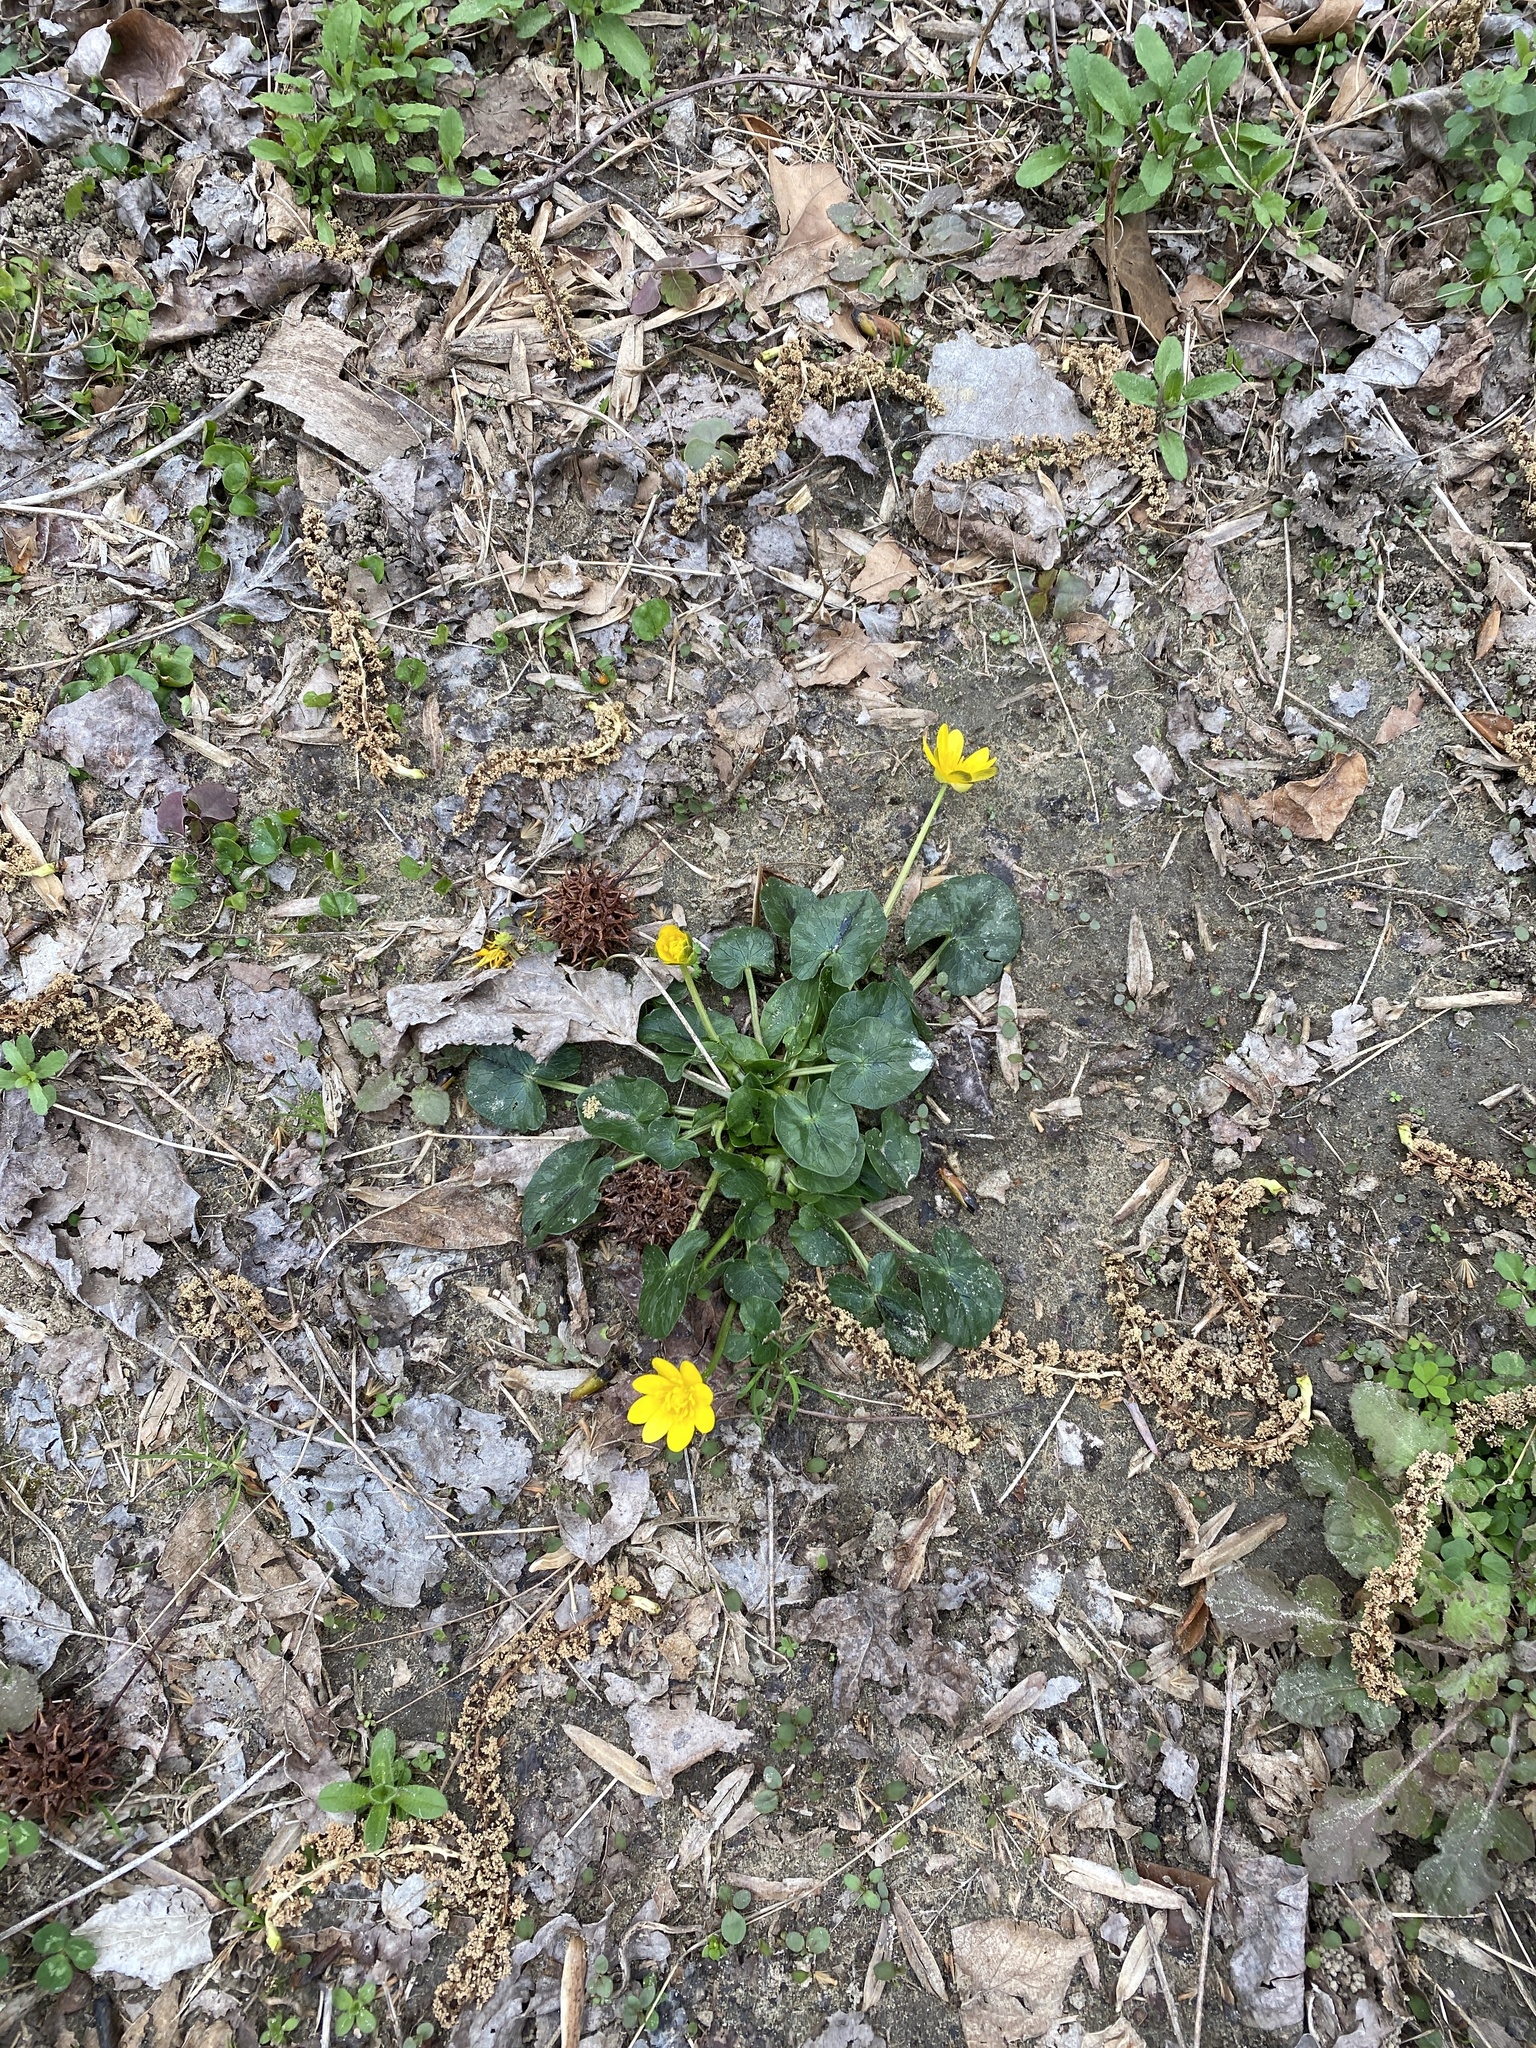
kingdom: Plantae
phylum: Tracheophyta
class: Magnoliopsida
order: Ranunculales
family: Ranunculaceae
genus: Ficaria
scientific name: Ficaria verna
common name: Lesser celandine
